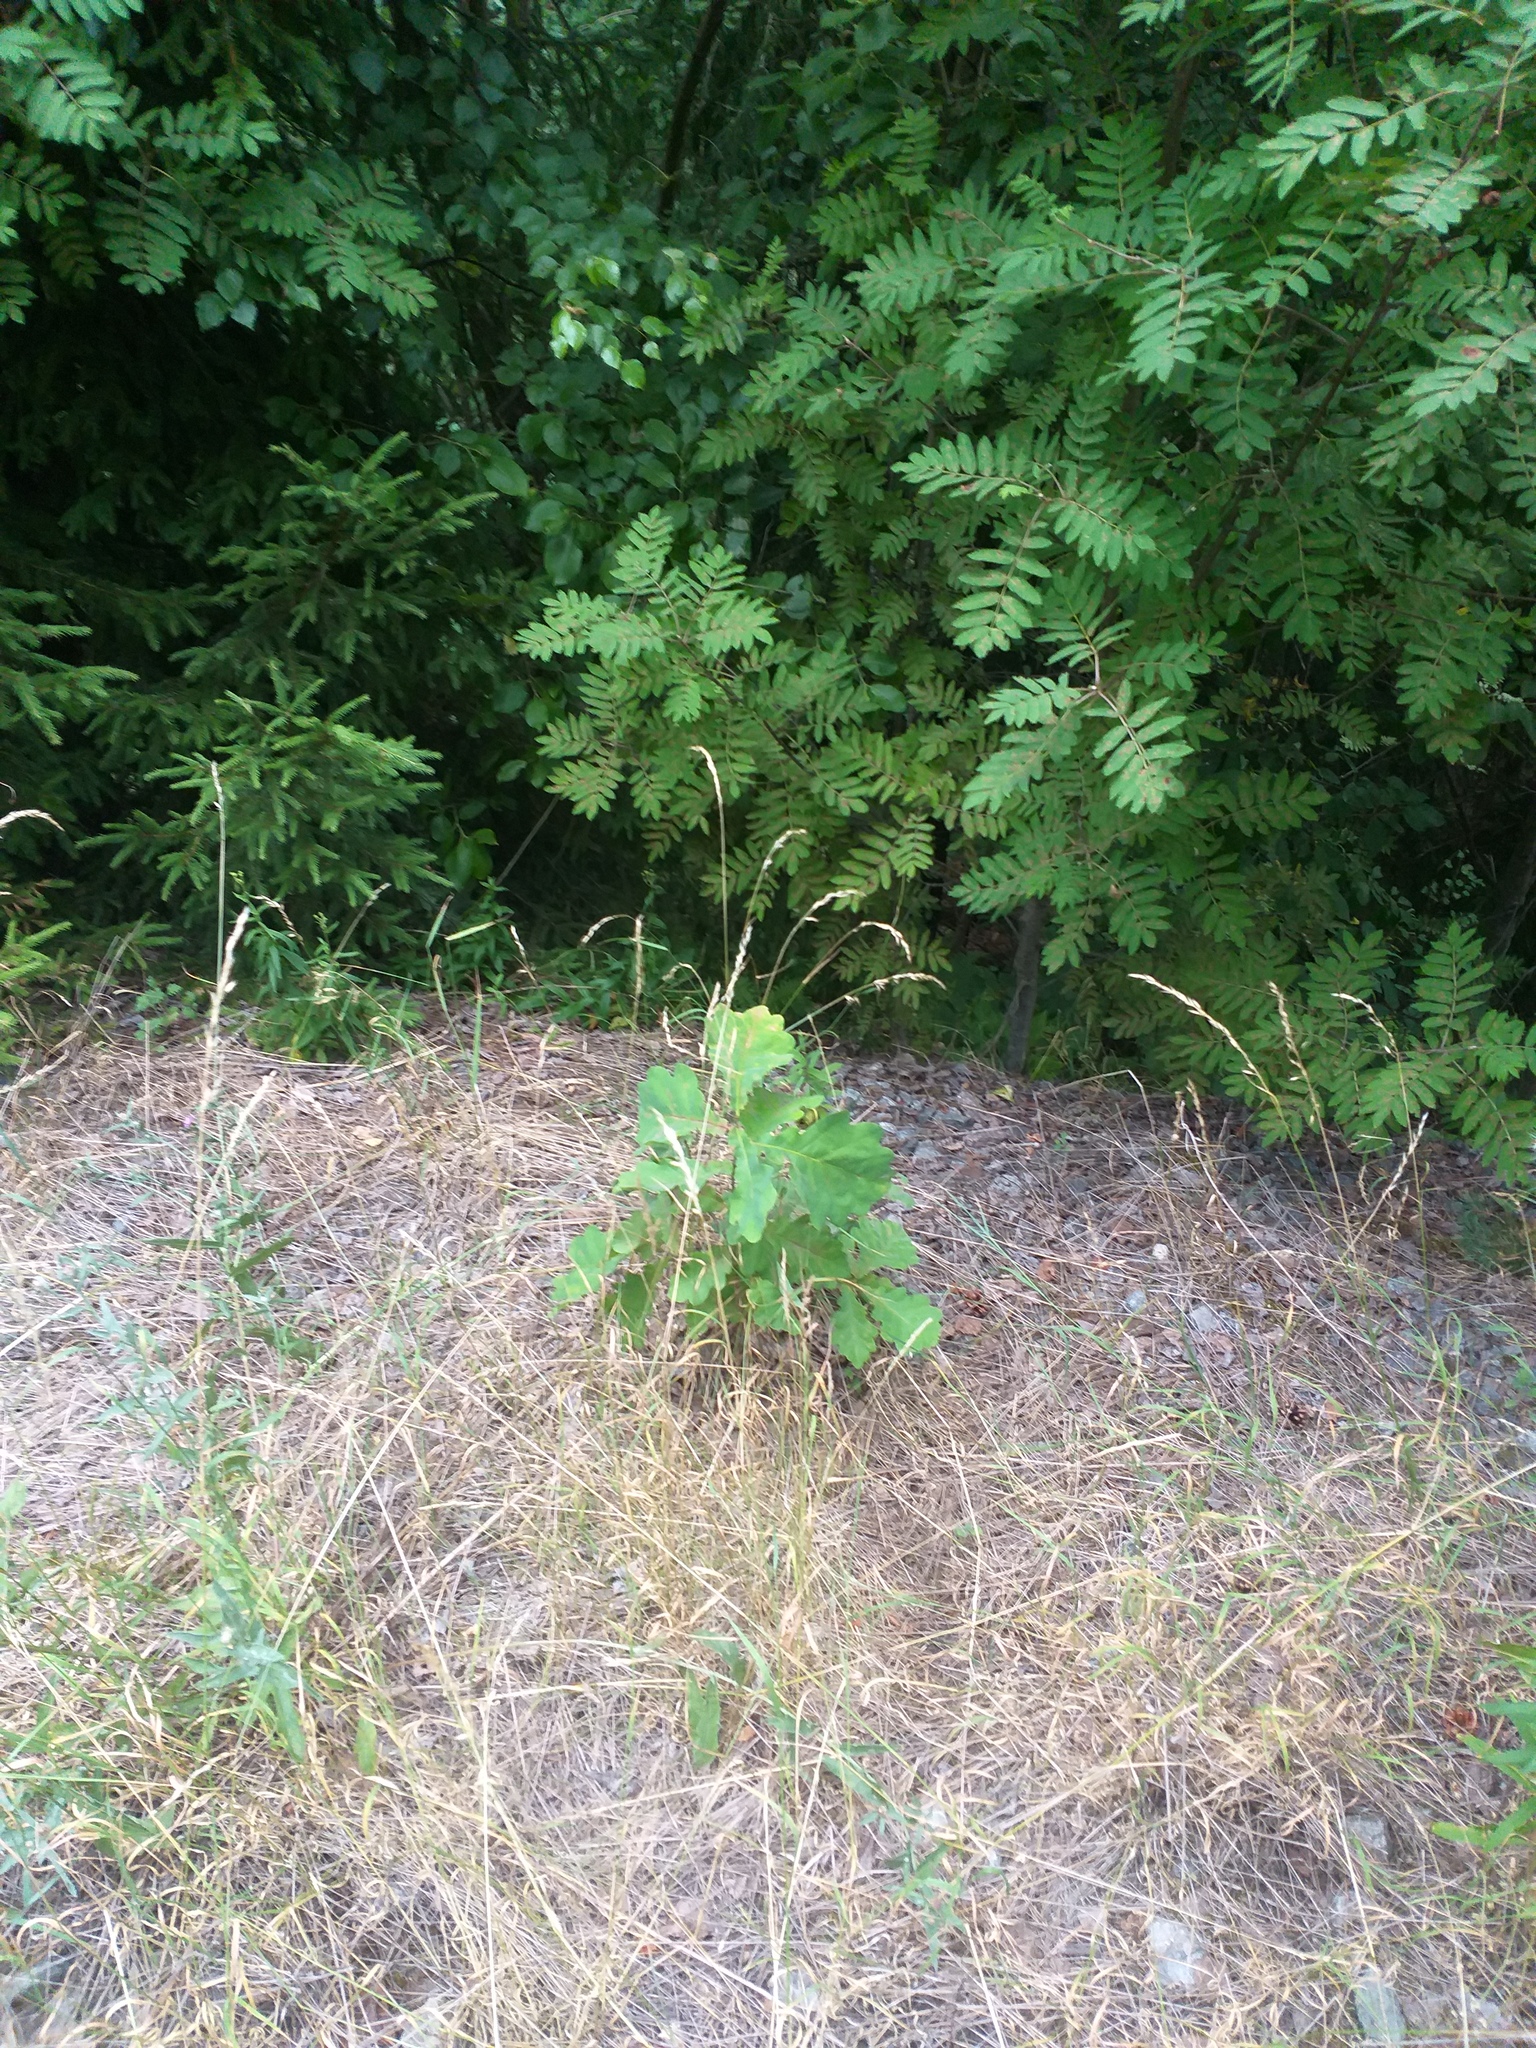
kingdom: Plantae
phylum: Tracheophyta
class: Magnoliopsida
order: Fagales
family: Fagaceae
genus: Quercus
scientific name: Quercus robur
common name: Pedunculate oak
